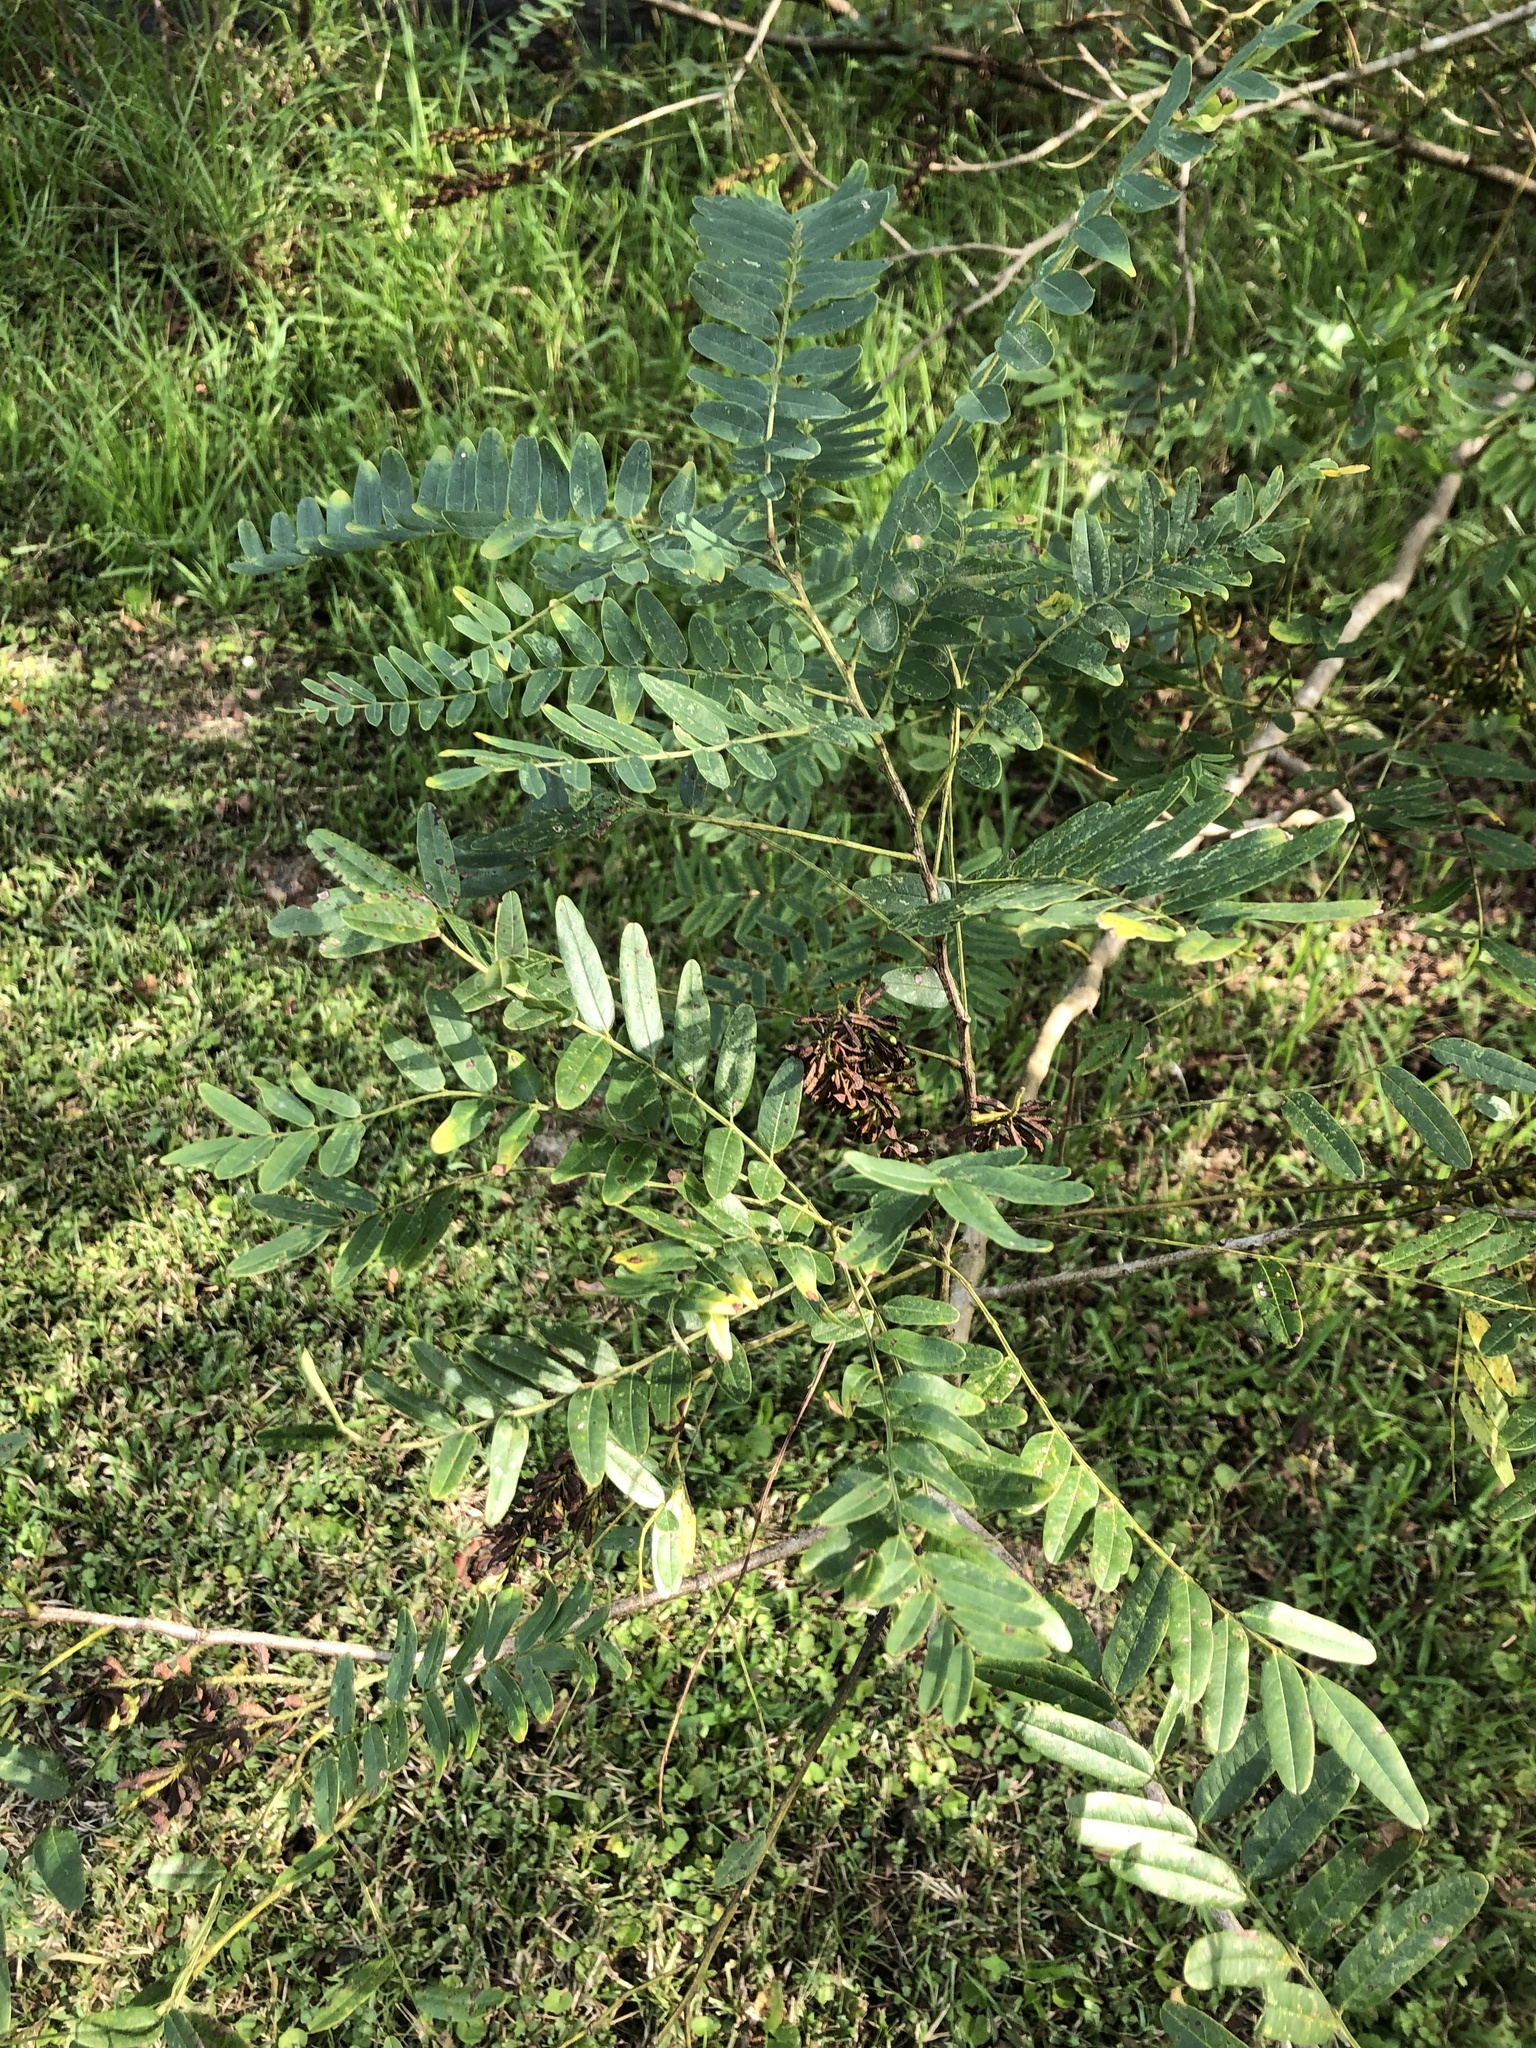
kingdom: Plantae
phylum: Tracheophyta
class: Magnoliopsida
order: Fabales
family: Fabaceae
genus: Amorpha
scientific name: Amorpha fruticosa
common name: False indigo
